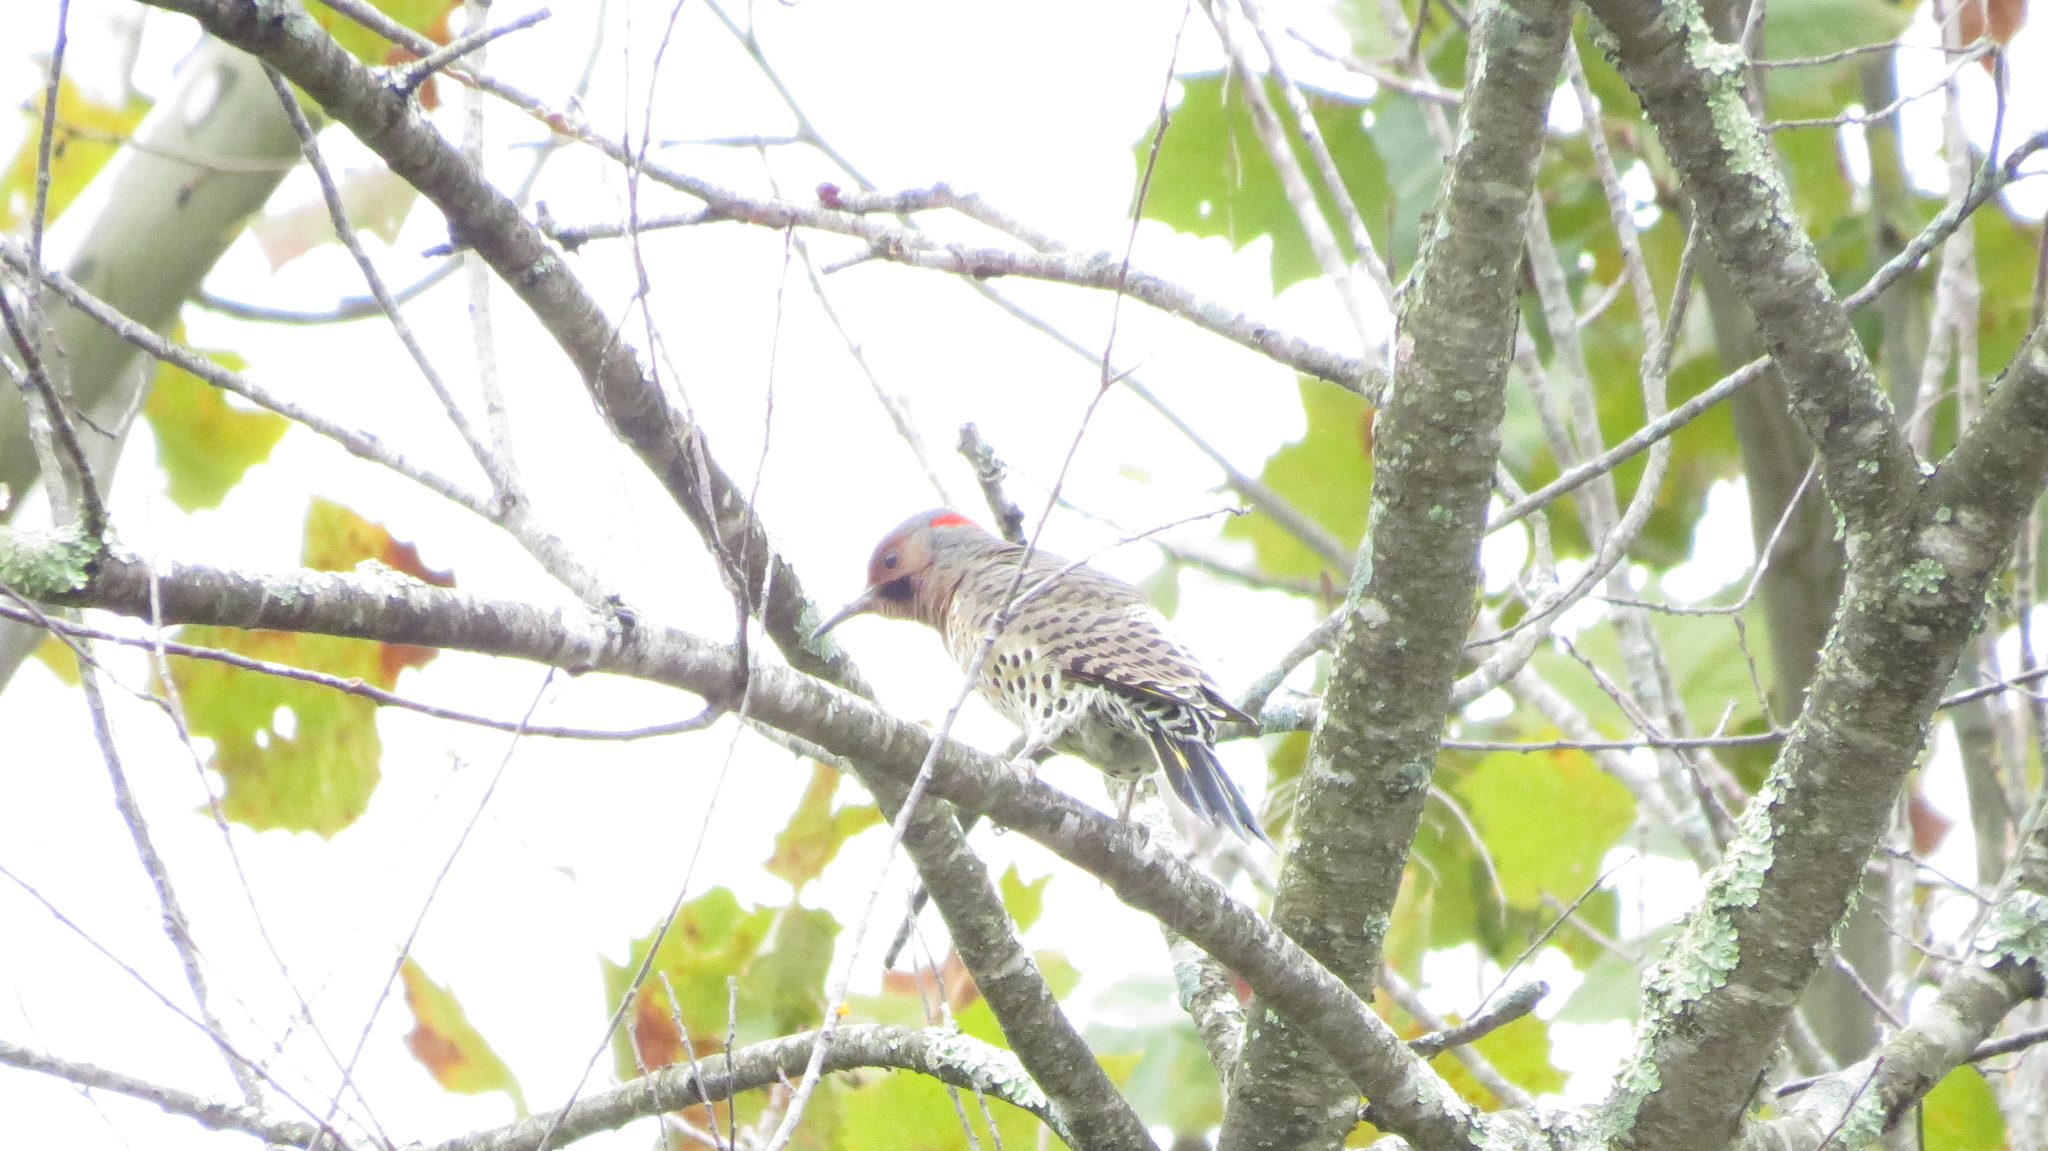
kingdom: Animalia
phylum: Chordata
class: Aves
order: Piciformes
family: Picidae
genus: Colaptes
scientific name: Colaptes auratus
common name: Northern flicker
